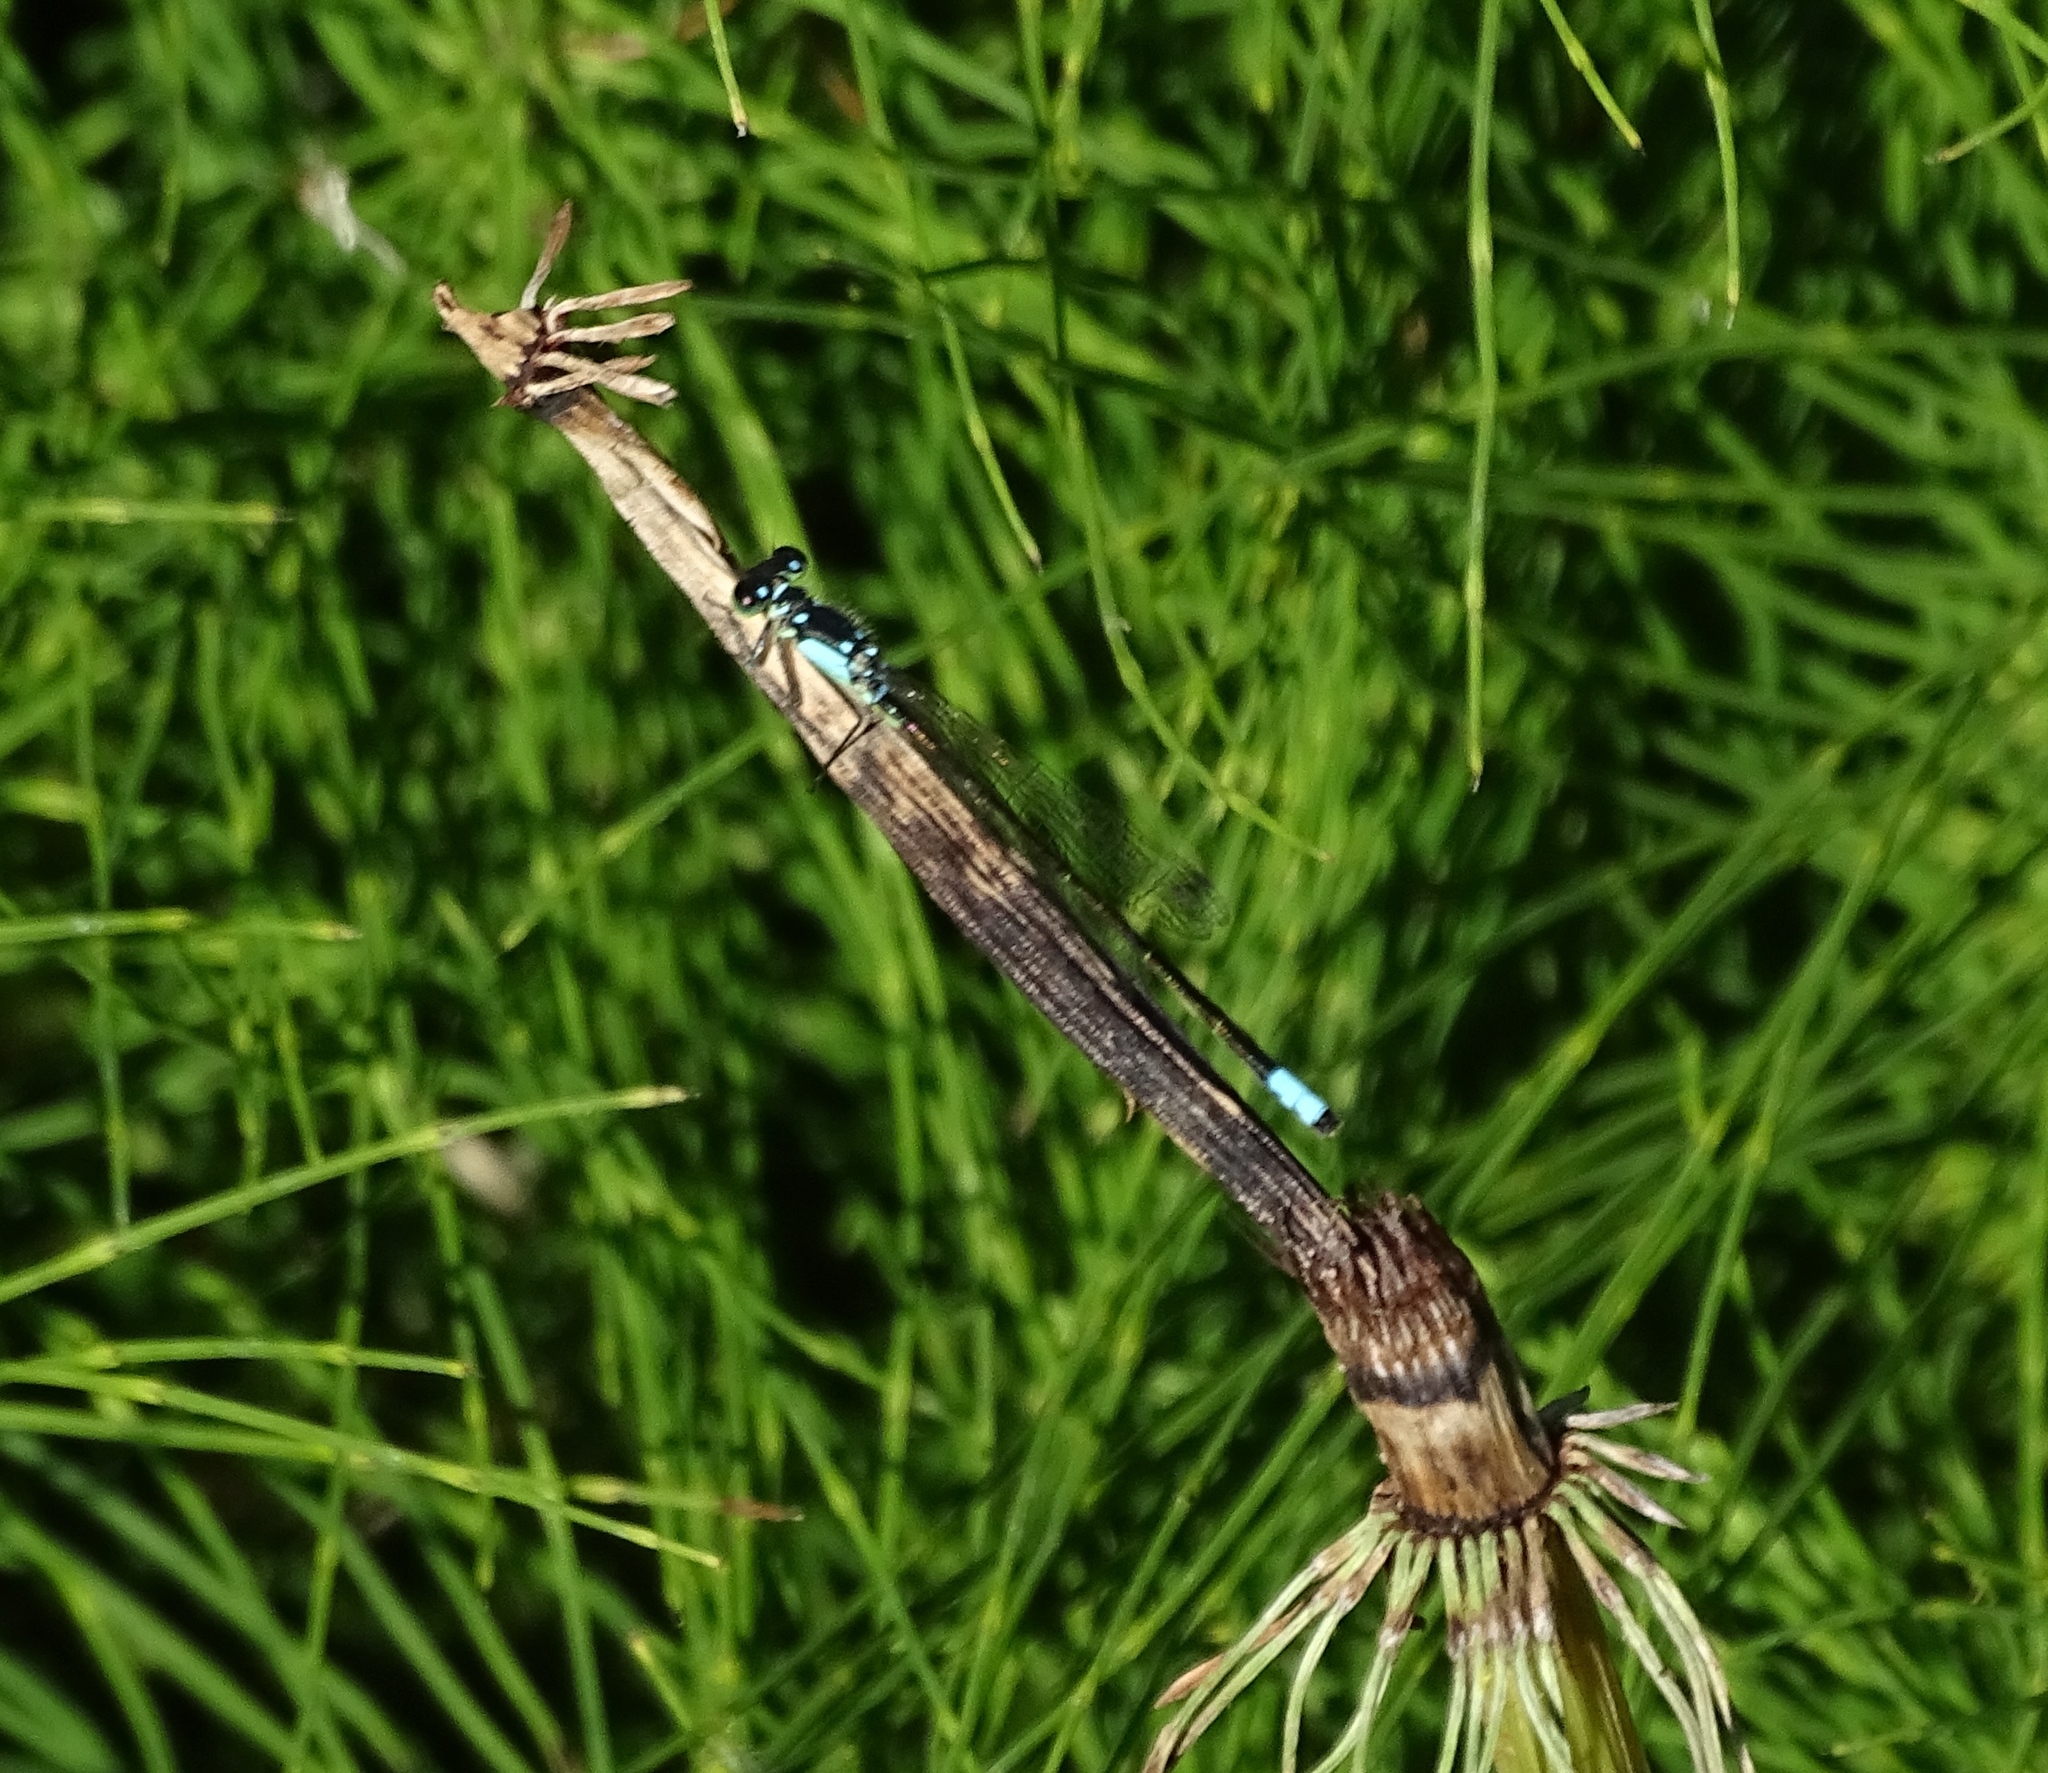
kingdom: Animalia
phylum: Arthropoda
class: Insecta
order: Odonata
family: Coenagrionidae
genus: Ischnura
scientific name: Ischnura cervula
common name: Pacific forktail
